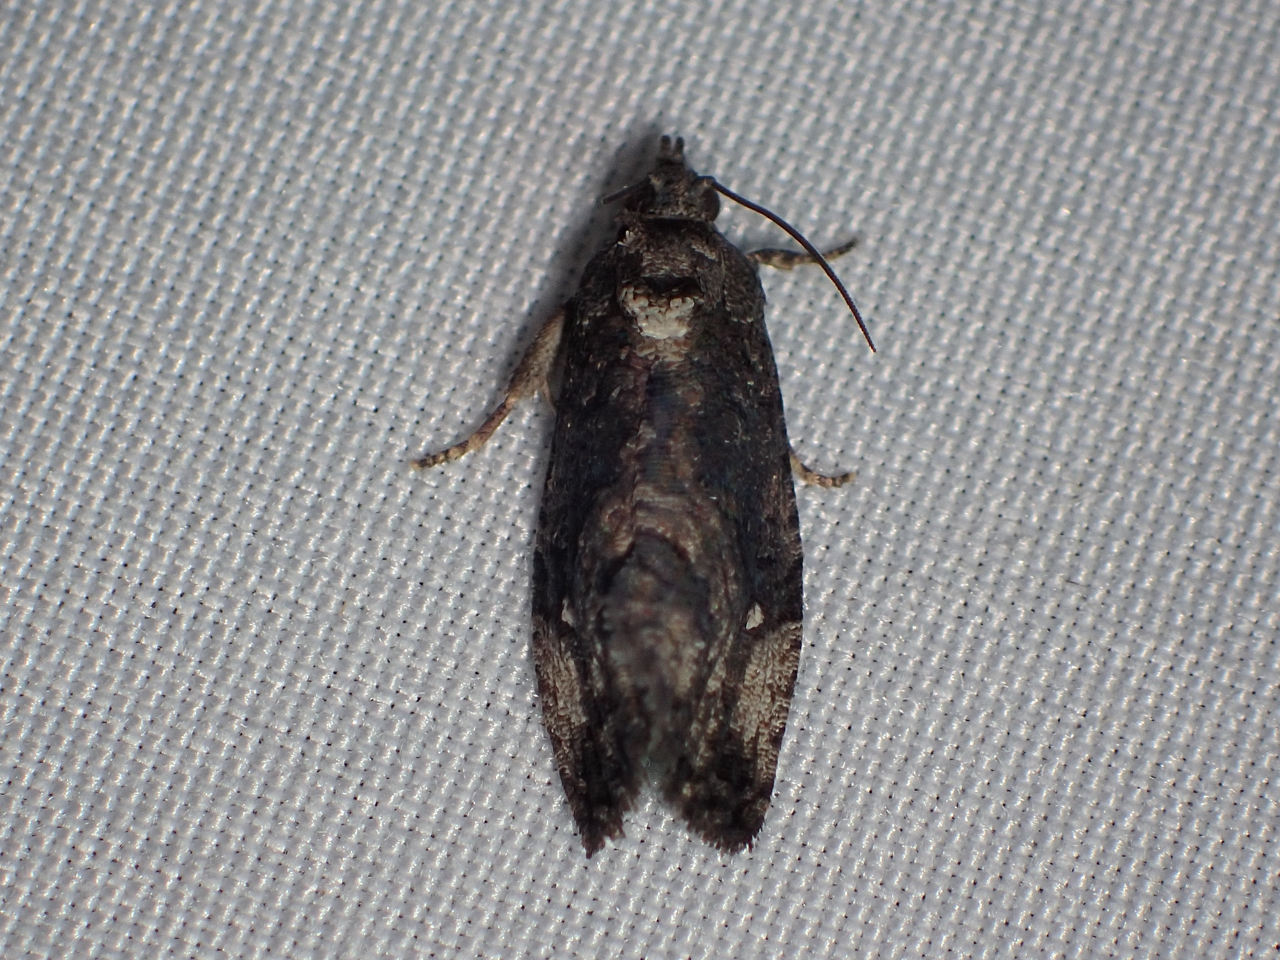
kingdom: Animalia
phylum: Arthropoda
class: Insecta
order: Lepidoptera
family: Tortricidae
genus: Gymnandrosoma
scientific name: Gymnandrosoma punctidiscanum
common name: Dotted ecdytolopha moth
